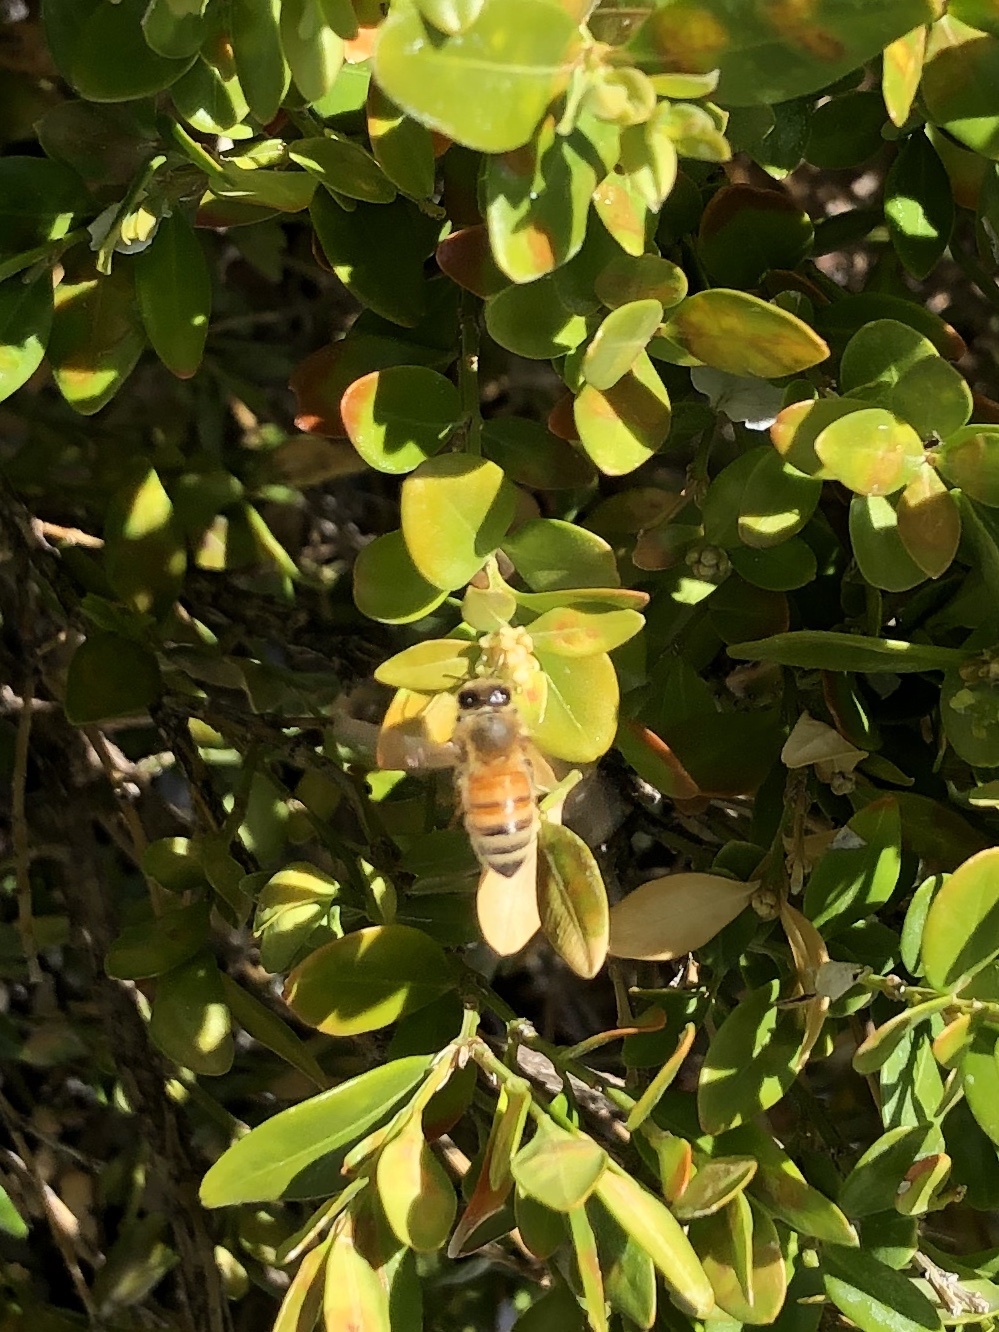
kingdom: Animalia
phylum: Arthropoda
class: Insecta
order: Hymenoptera
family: Apidae
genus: Apis
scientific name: Apis mellifera
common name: Honey bee
